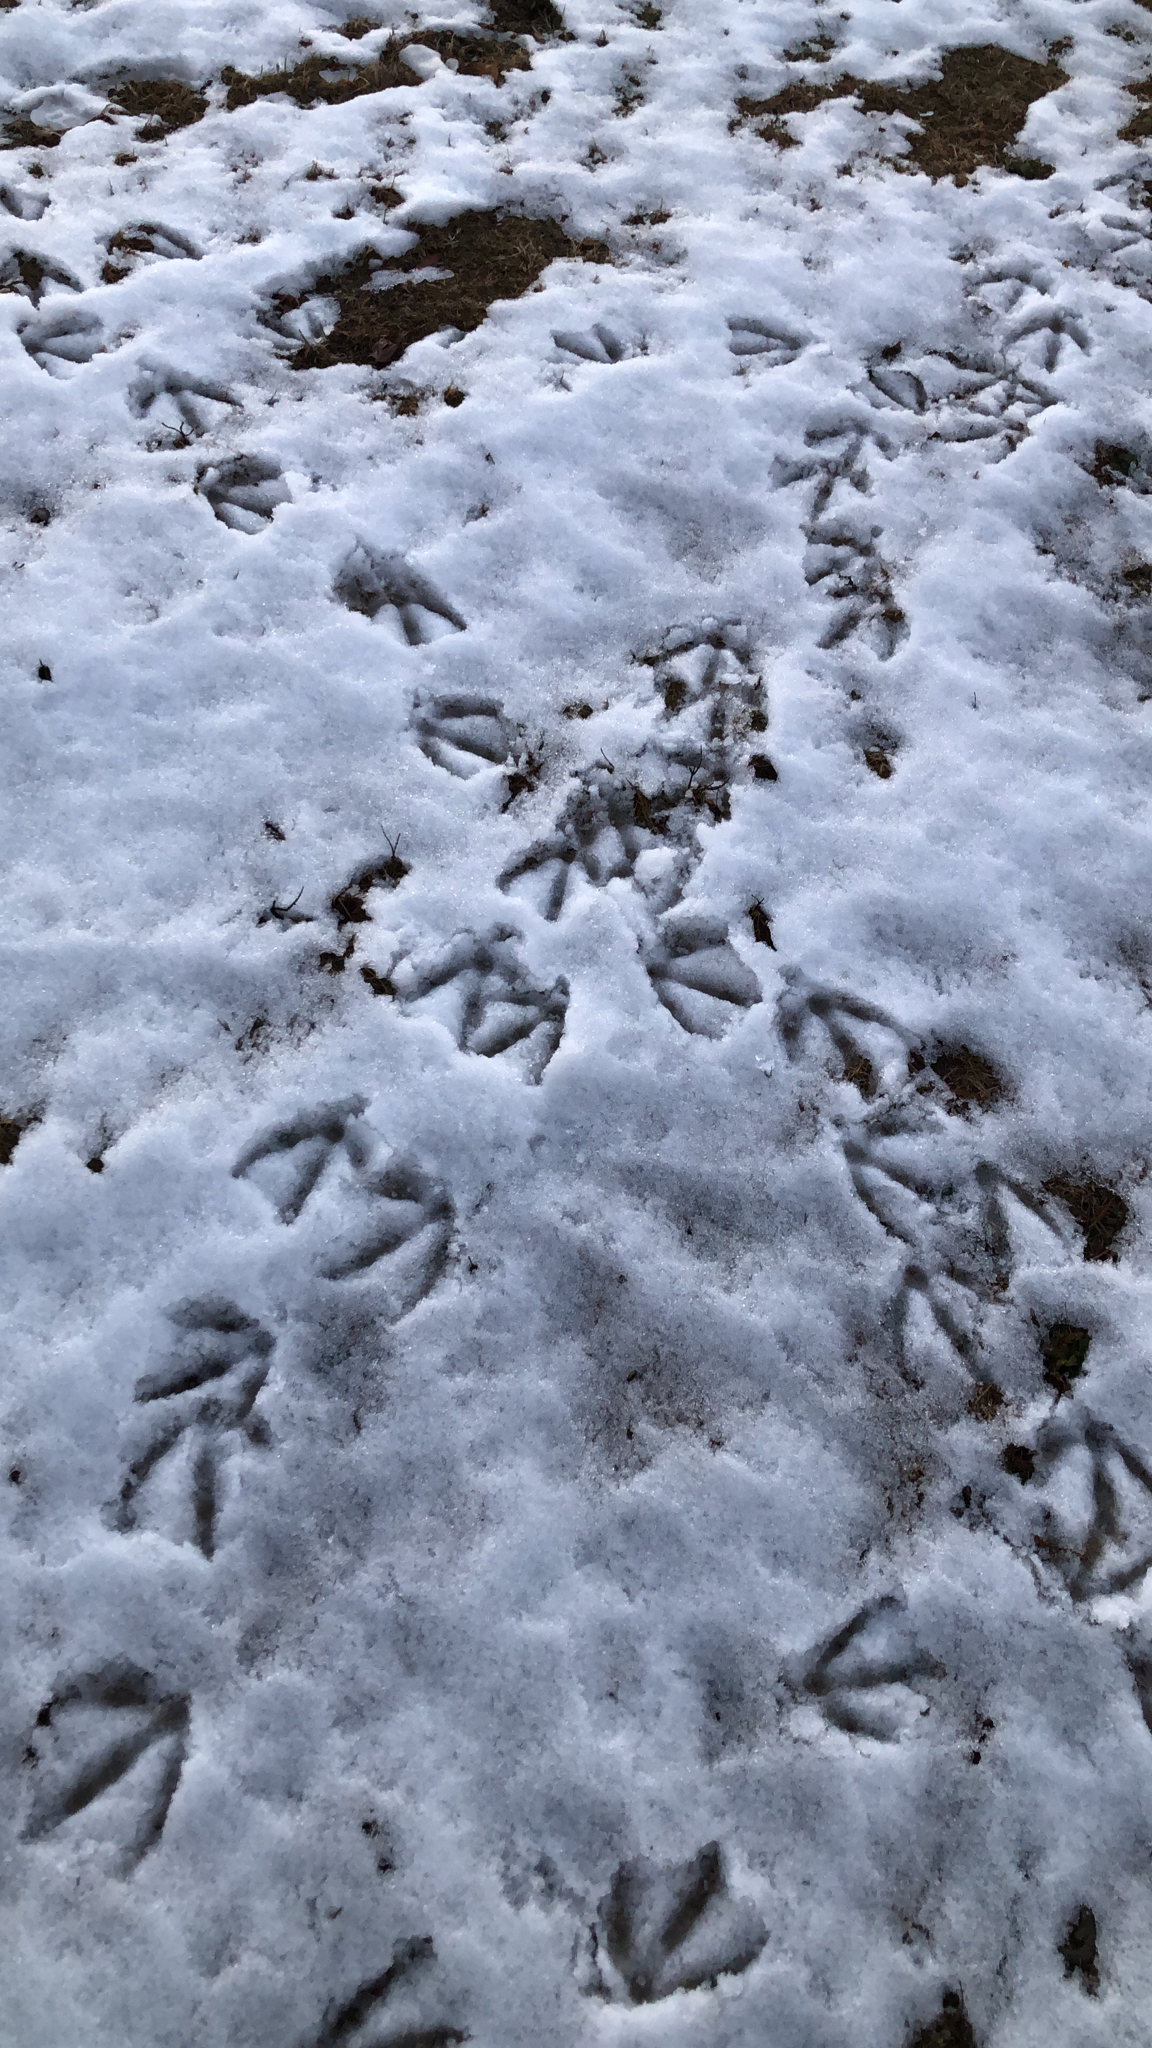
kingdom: Animalia
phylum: Chordata
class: Aves
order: Anseriformes
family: Anatidae
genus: Branta
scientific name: Branta canadensis
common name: Canada goose
